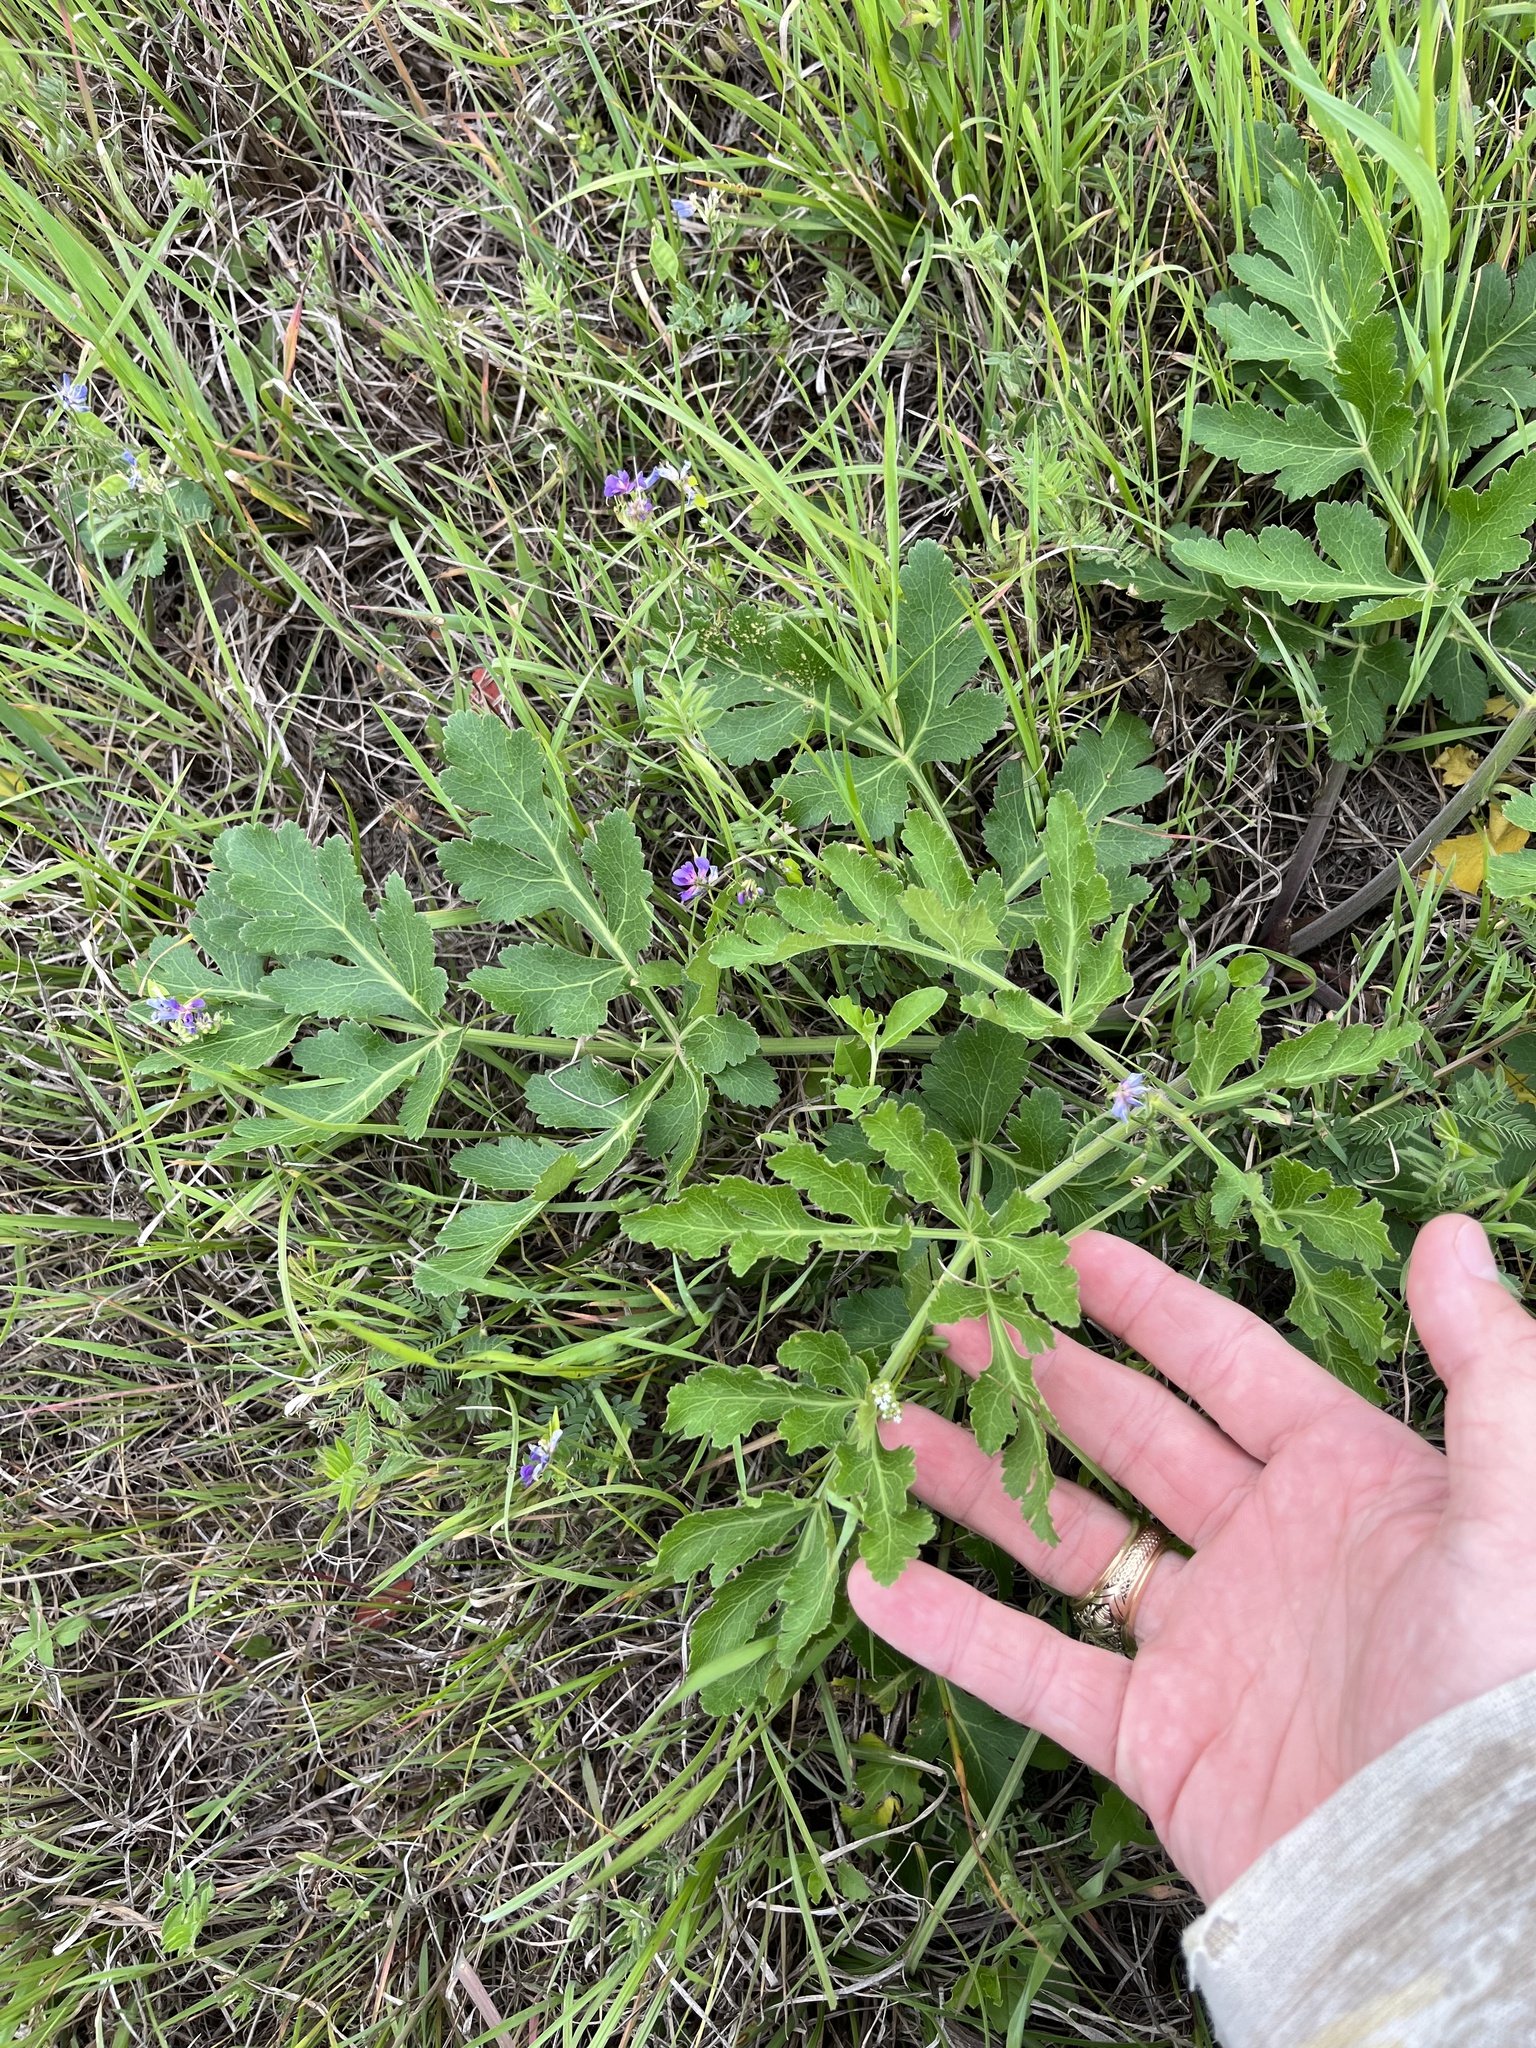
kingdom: Plantae
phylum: Tracheophyta
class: Magnoliopsida
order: Apiales
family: Apiaceae
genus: Polytaenia
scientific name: Polytaenia texana
